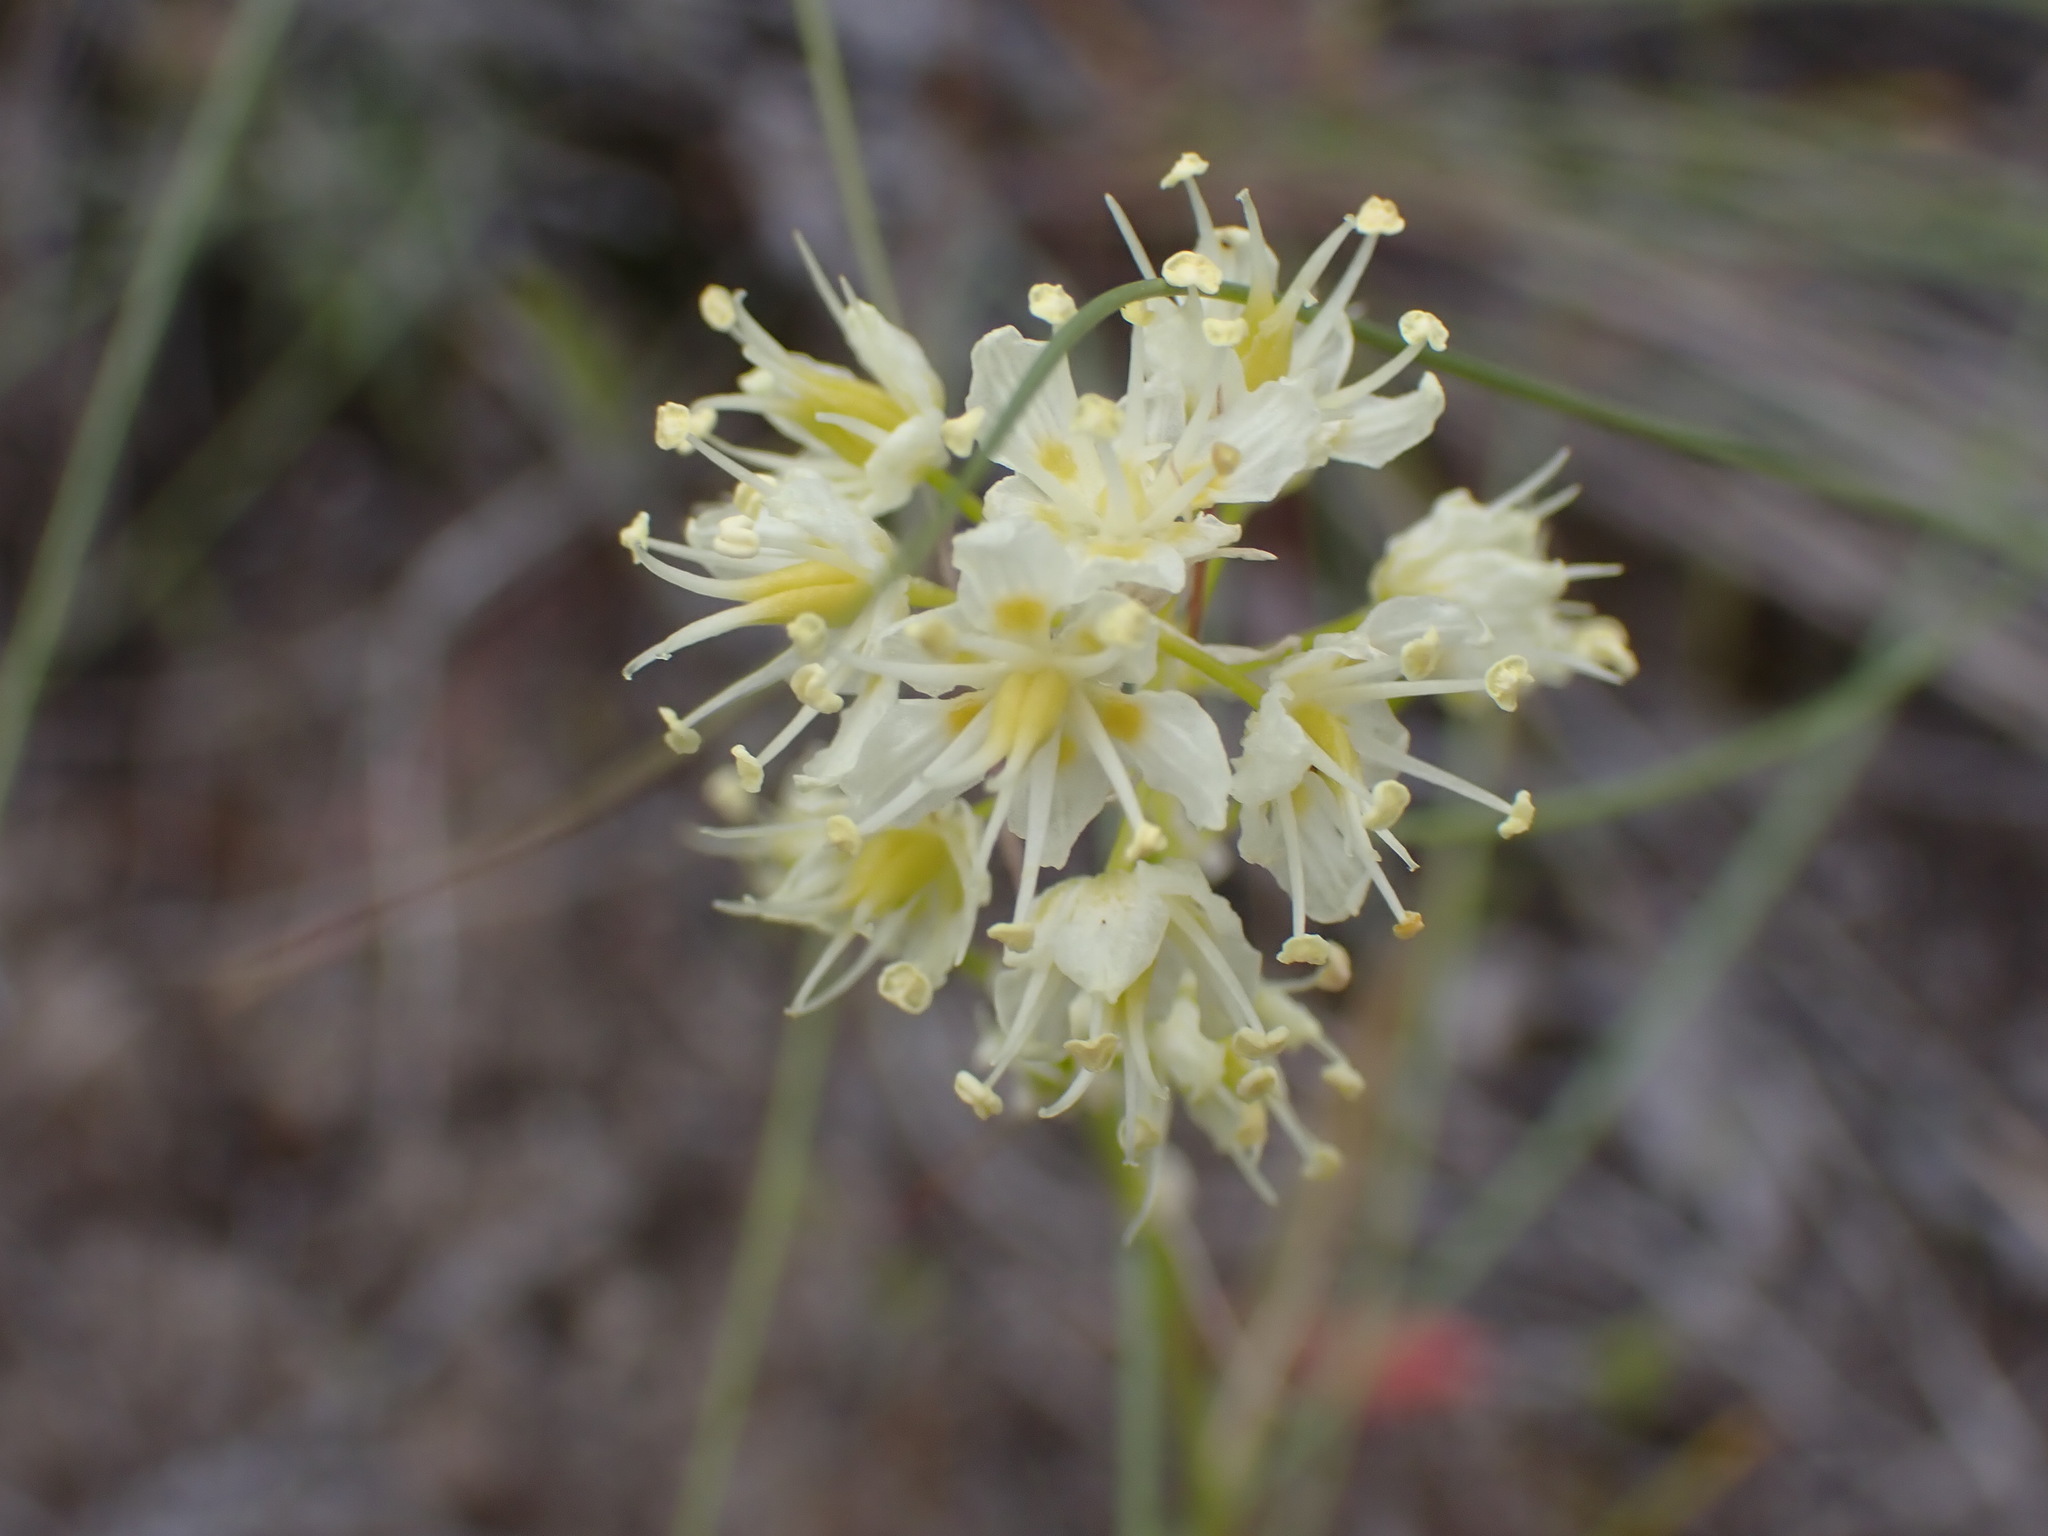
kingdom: Plantae
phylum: Tracheophyta
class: Liliopsida
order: Liliales
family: Melanthiaceae
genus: Toxicoscordion
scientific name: Toxicoscordion venenosum
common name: Meadow death camas
